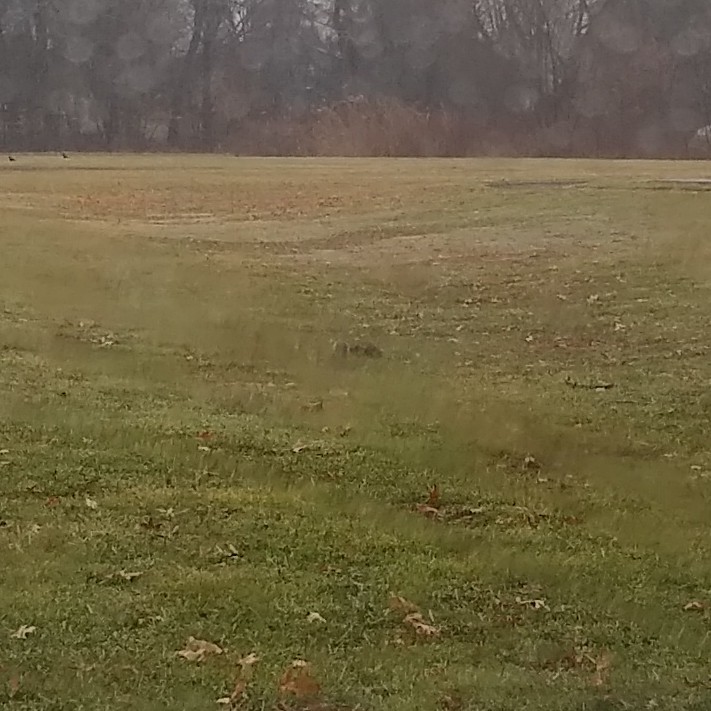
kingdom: Animalia
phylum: Chordata
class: Mammalia
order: Rodentia
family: Sciuridae
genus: Sciurus
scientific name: Sciurus carolinensis
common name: Eastern gray squirrel
